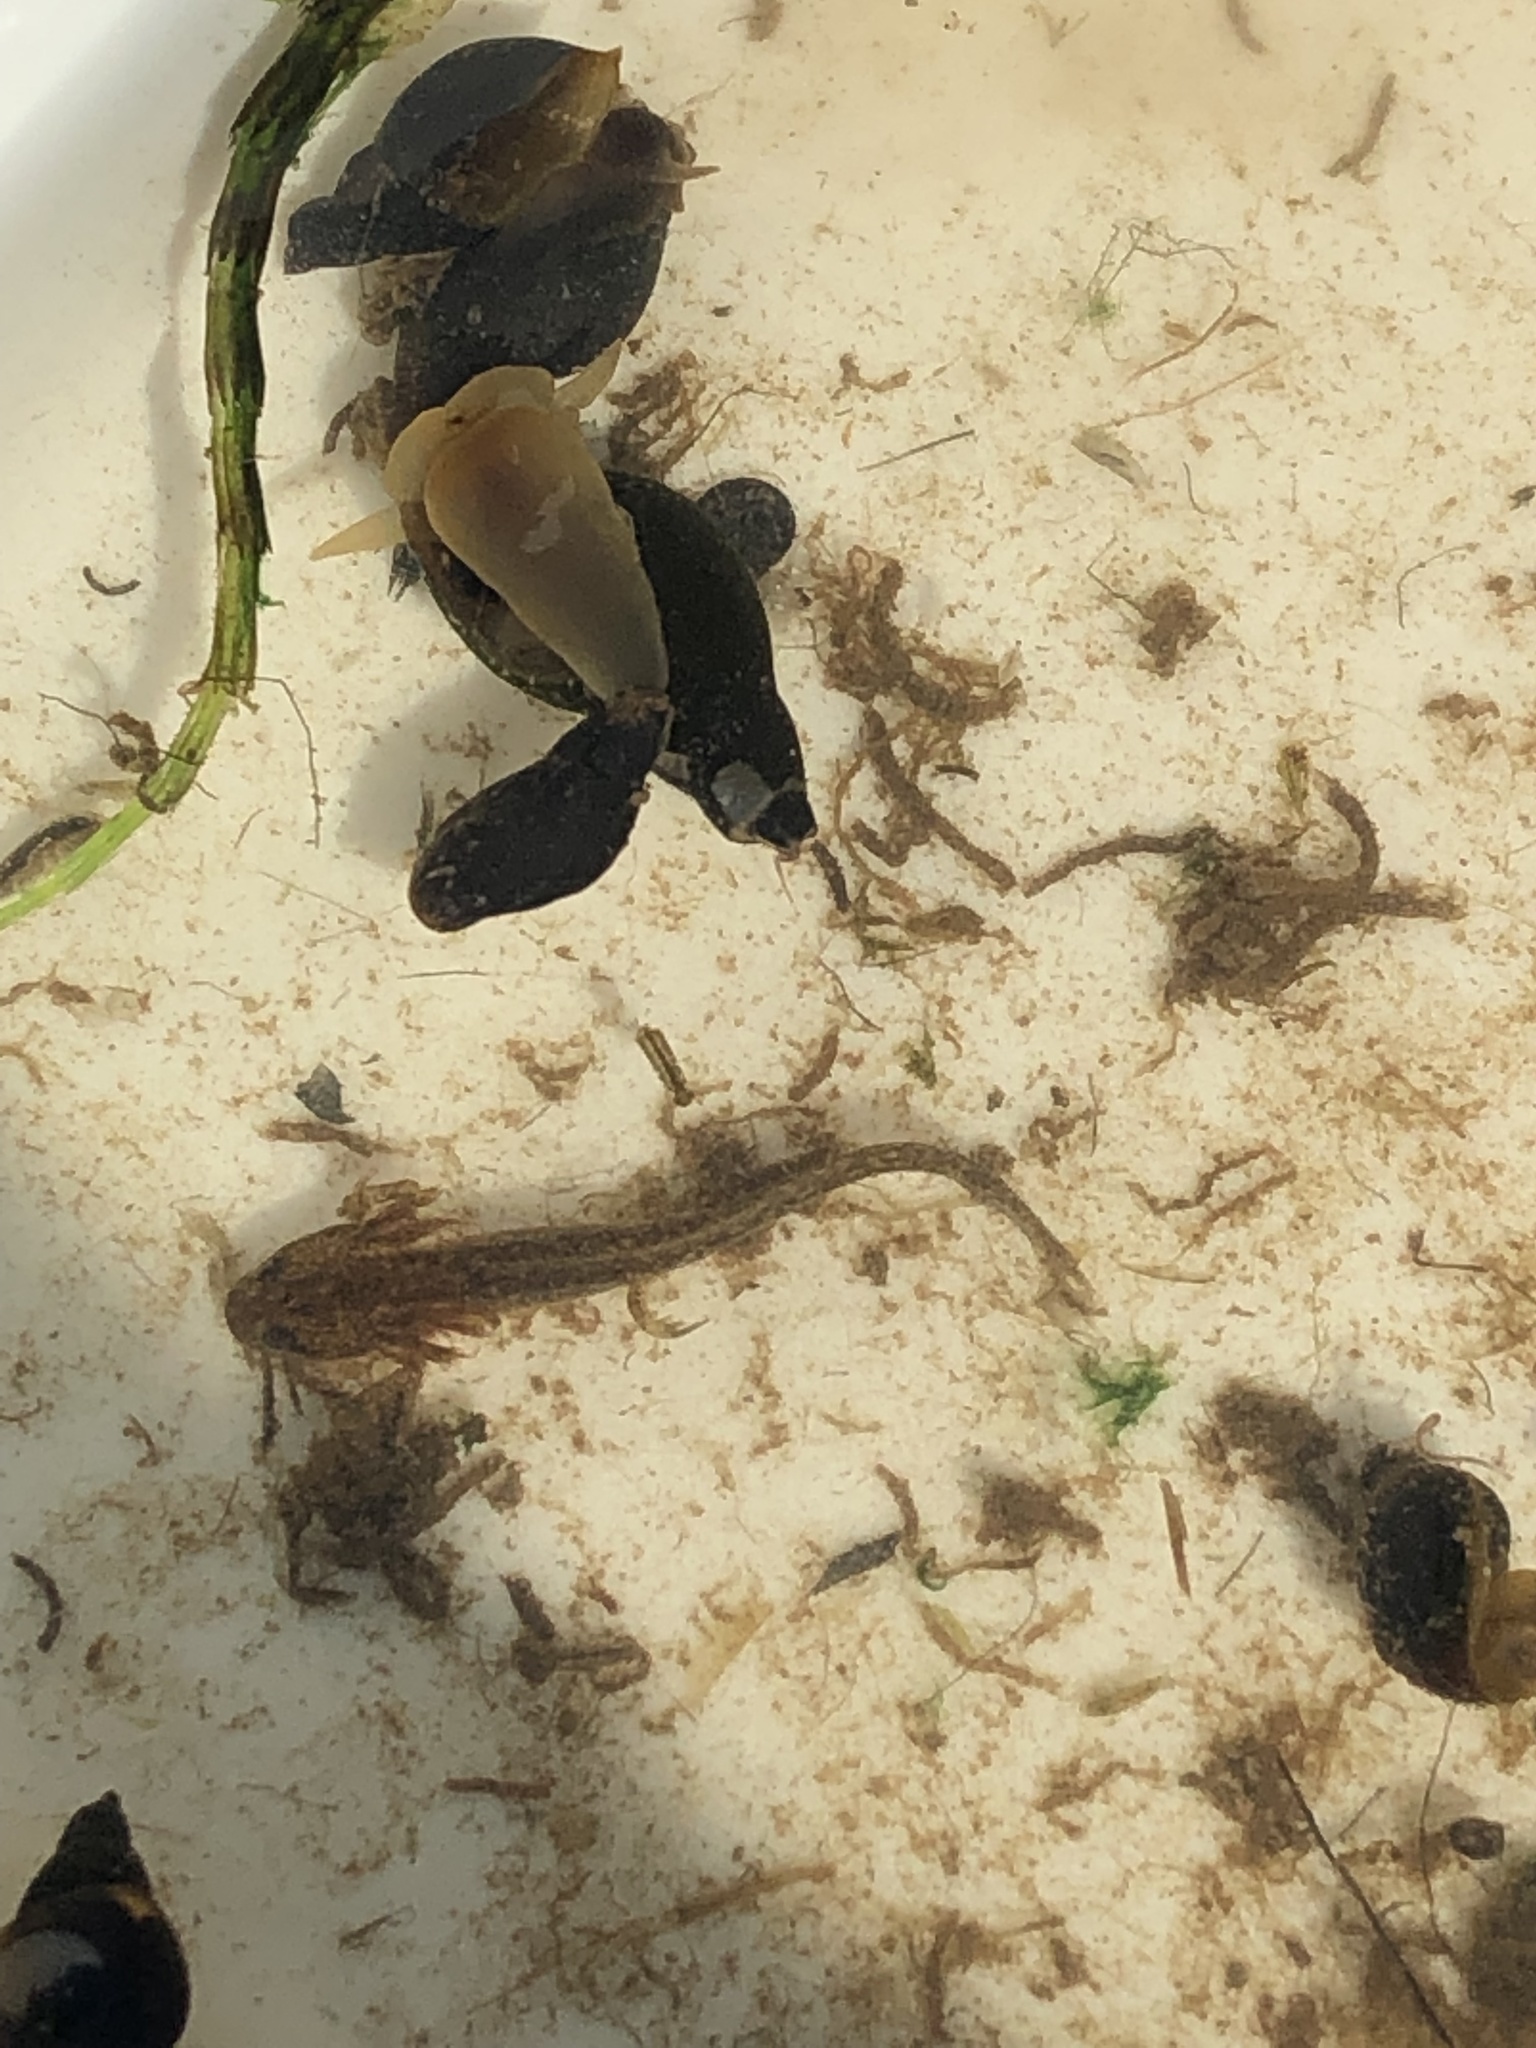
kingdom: Animalia
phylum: Chordata
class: Amphibia
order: Caudata
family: Salamandridae
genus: Lissotriton
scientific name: Lissotriton
